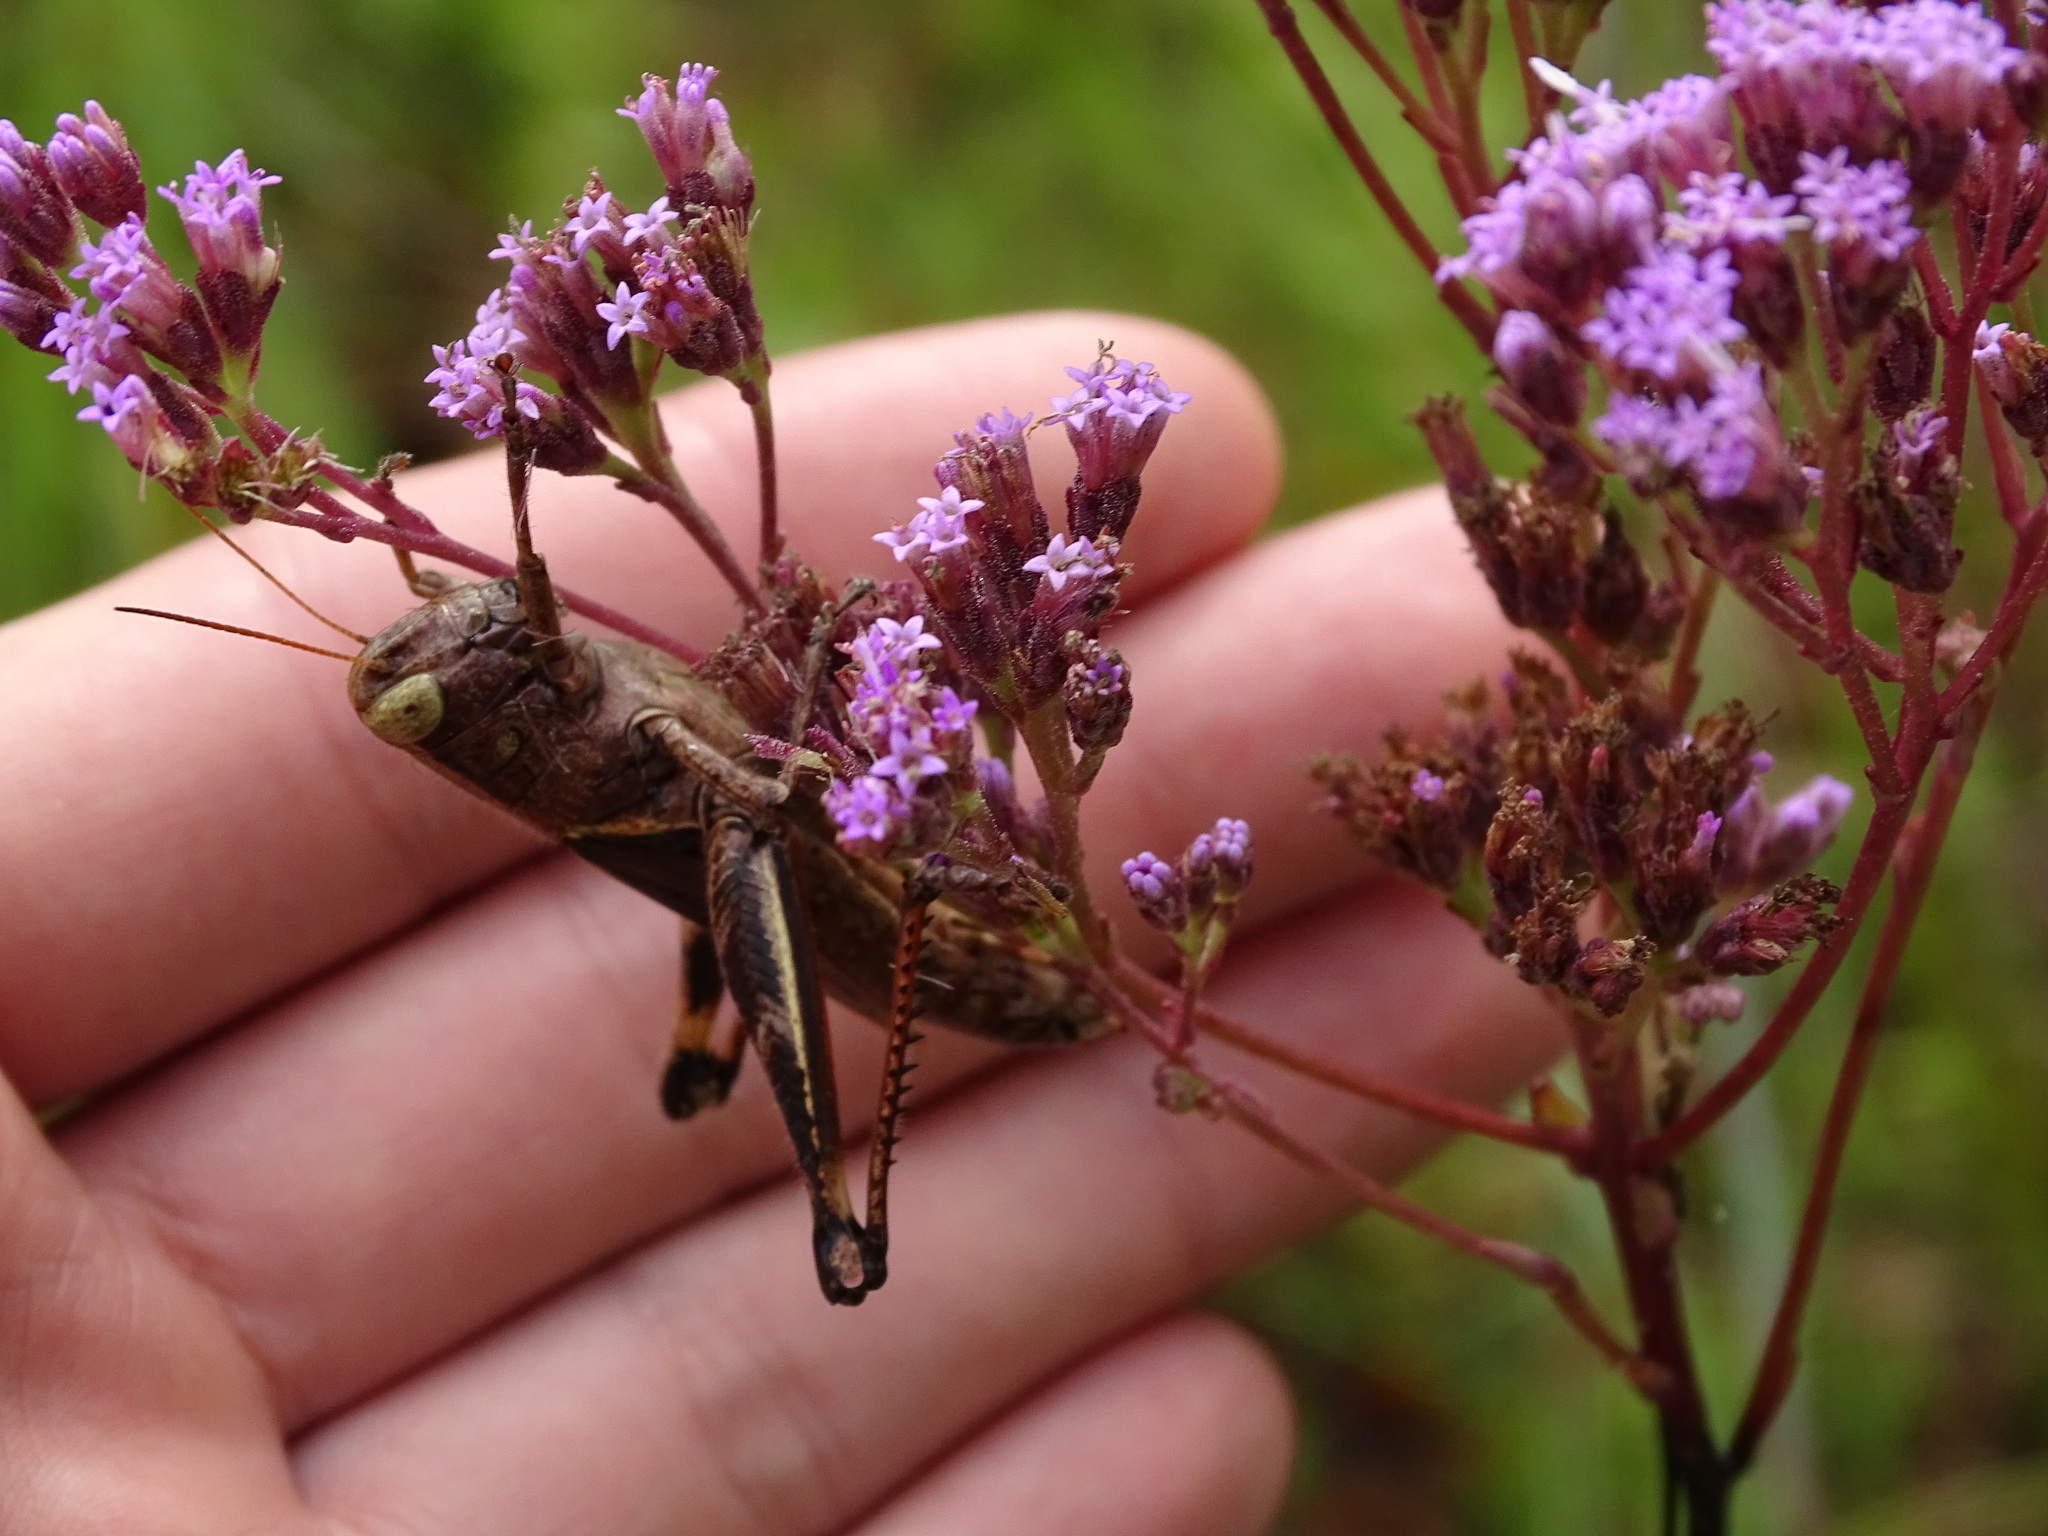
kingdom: Animalia
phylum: Arthropoda
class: Insecta
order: Orthoptera
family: Acrididae
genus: Melanoplus
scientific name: Melanoplus querneus
